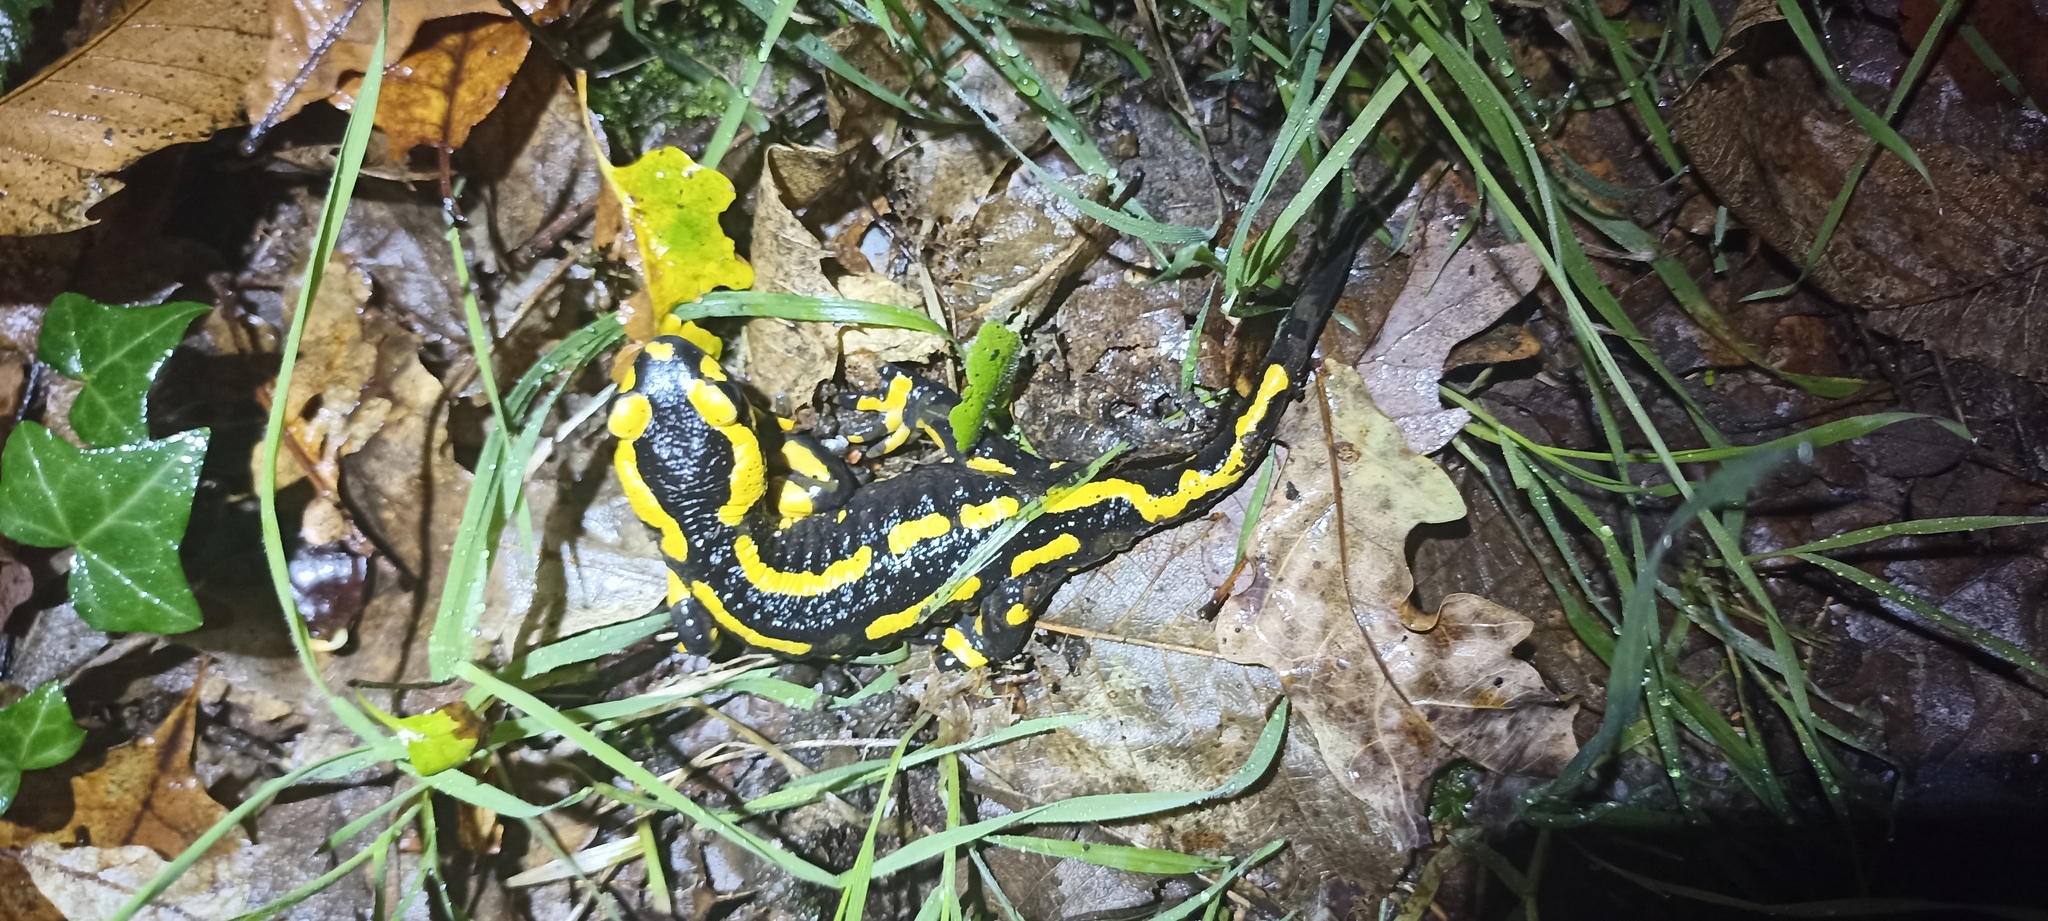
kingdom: Animalia
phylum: Chordata
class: Amphibia
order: Caudata
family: Salamandridae
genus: Salamandra
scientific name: Salamandra salamandra
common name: Fire salamander
